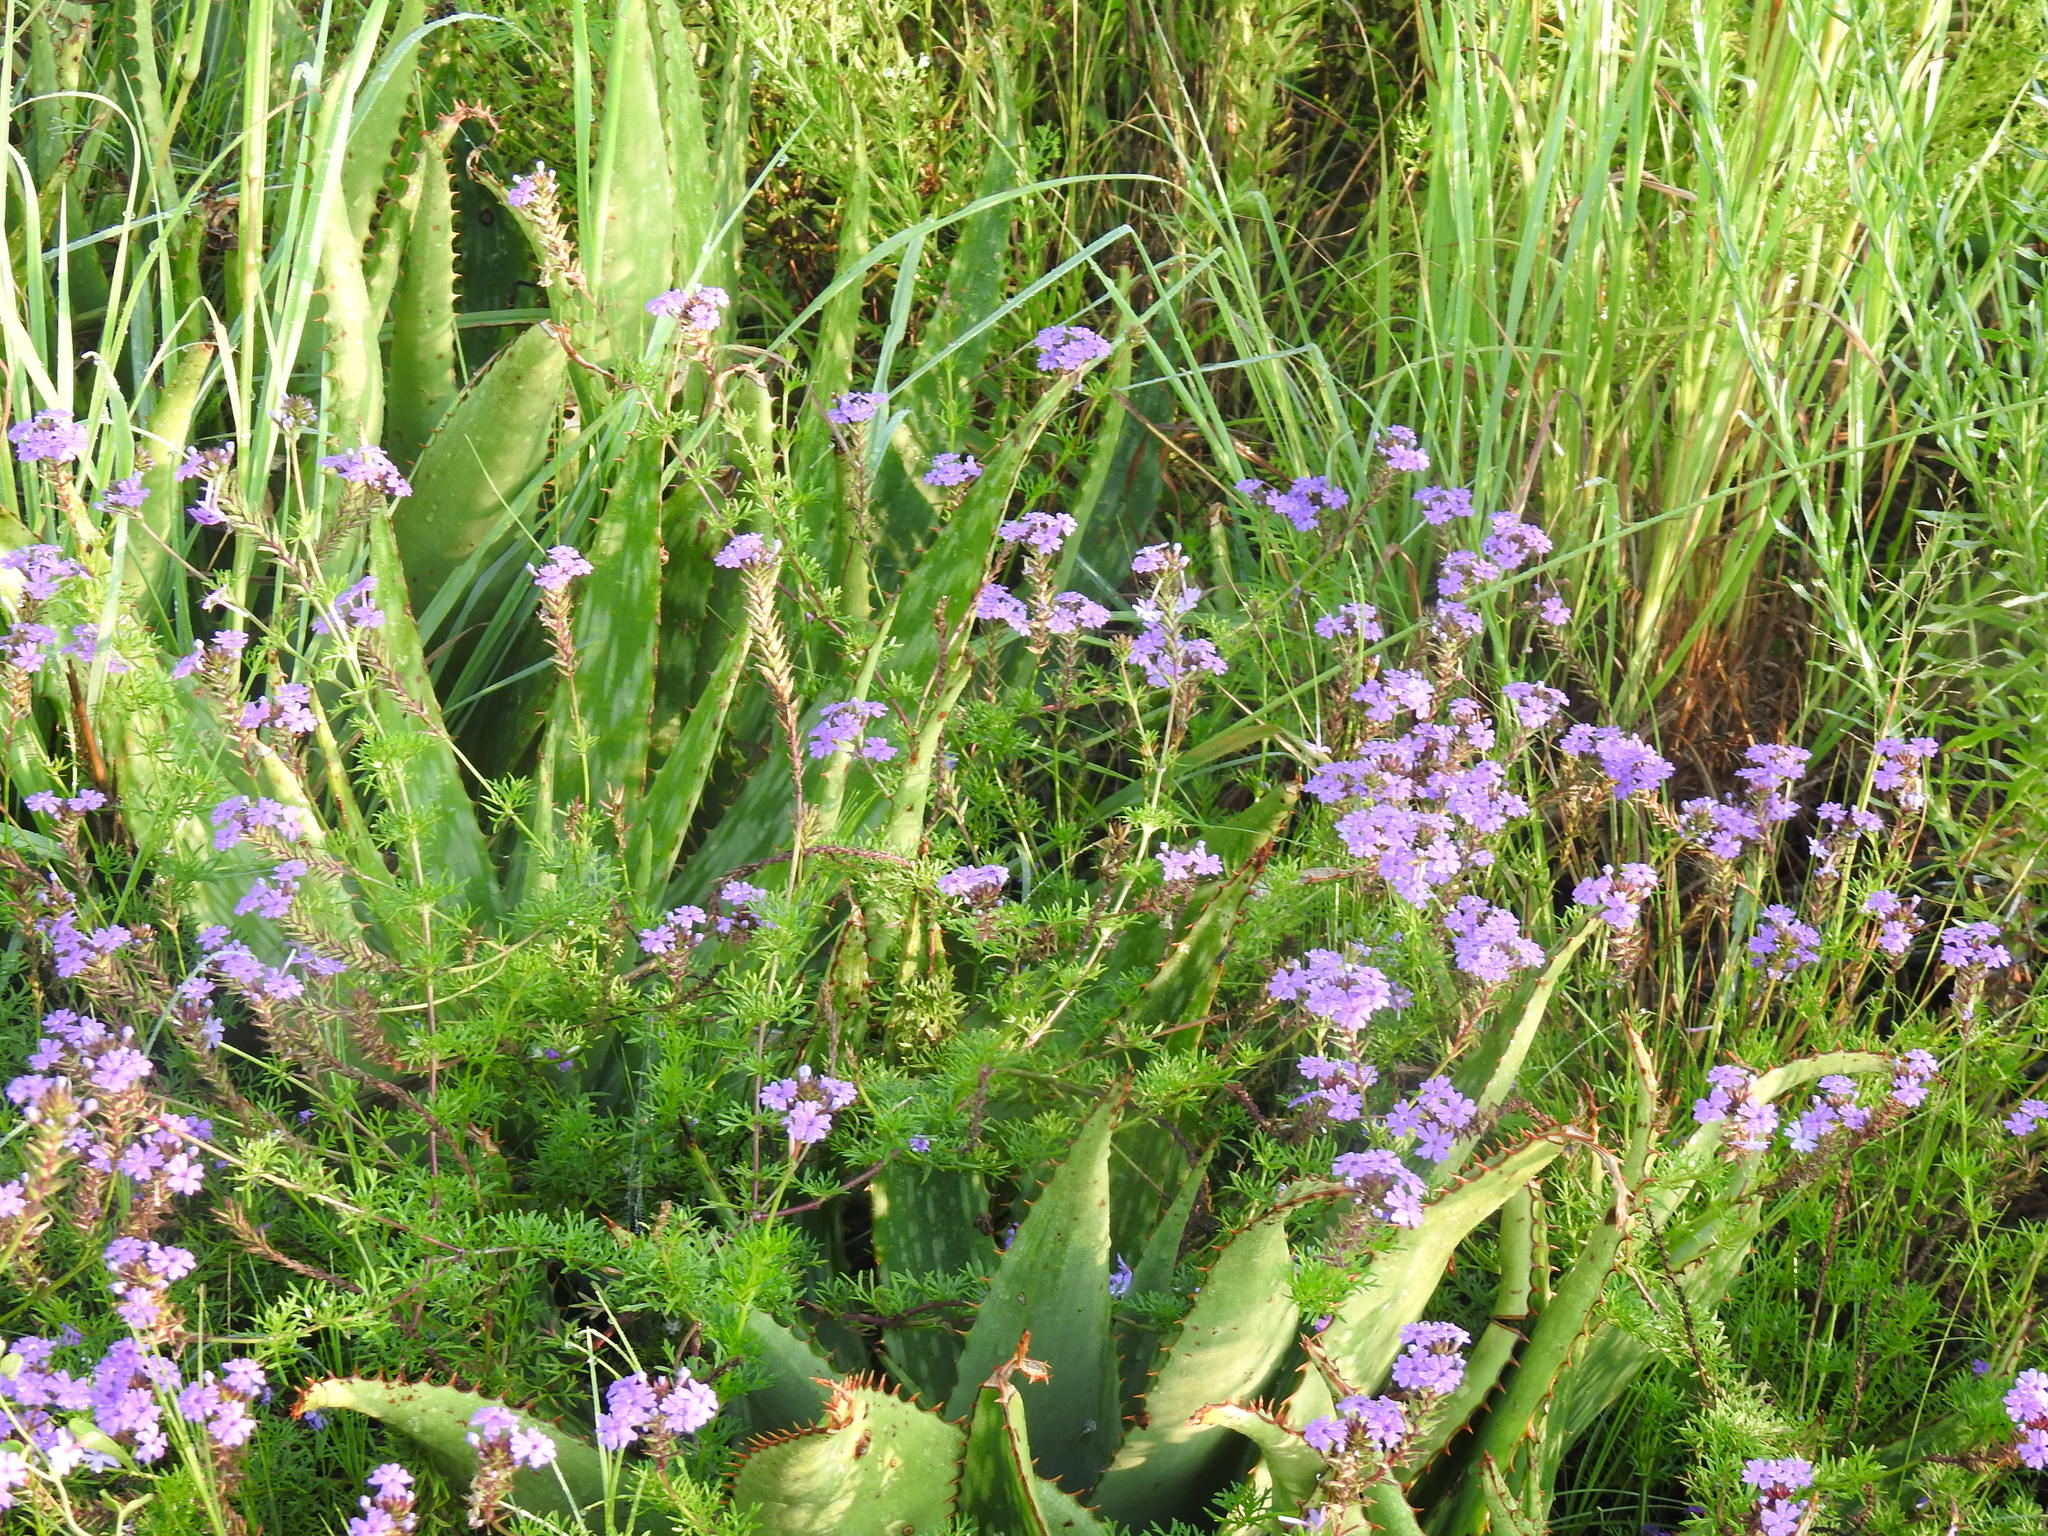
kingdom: Plantae
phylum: Tracheophyta
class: Magnoliopsida
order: Lamiales
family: Verbenaceae
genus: Verbena
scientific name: Verbena aristigera
